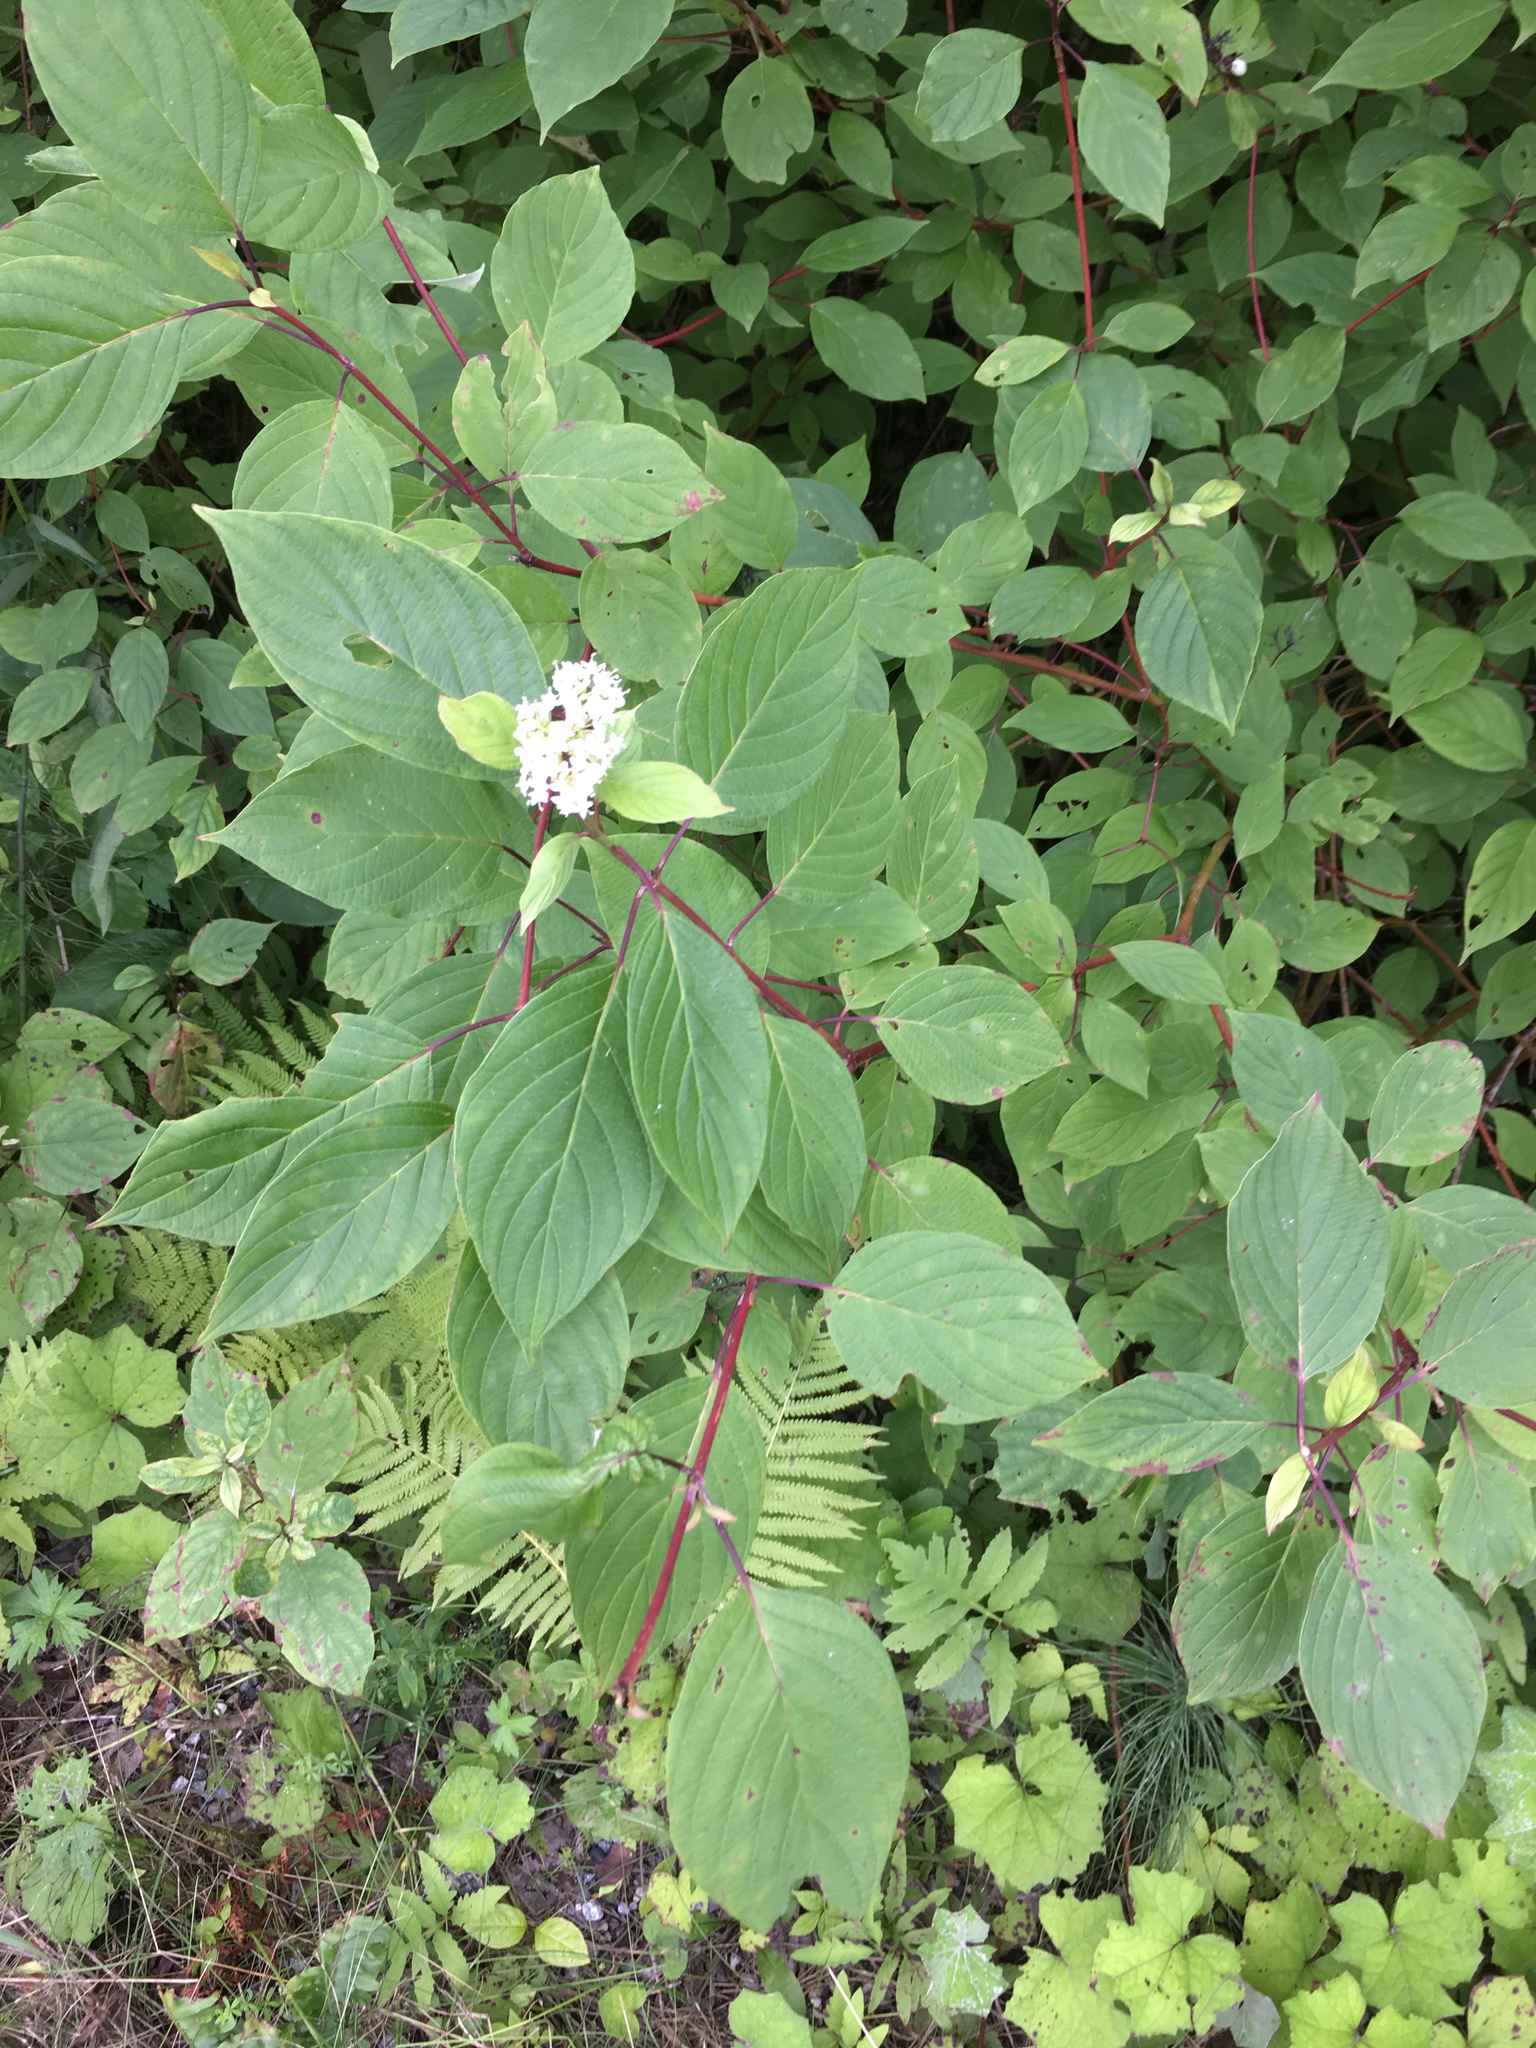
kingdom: Plantae
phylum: Tracheophyta
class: Magnoliopsida
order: Cornales
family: Cornaceae
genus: Cornus
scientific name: Cornus sericea
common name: Red-osier dogwood
